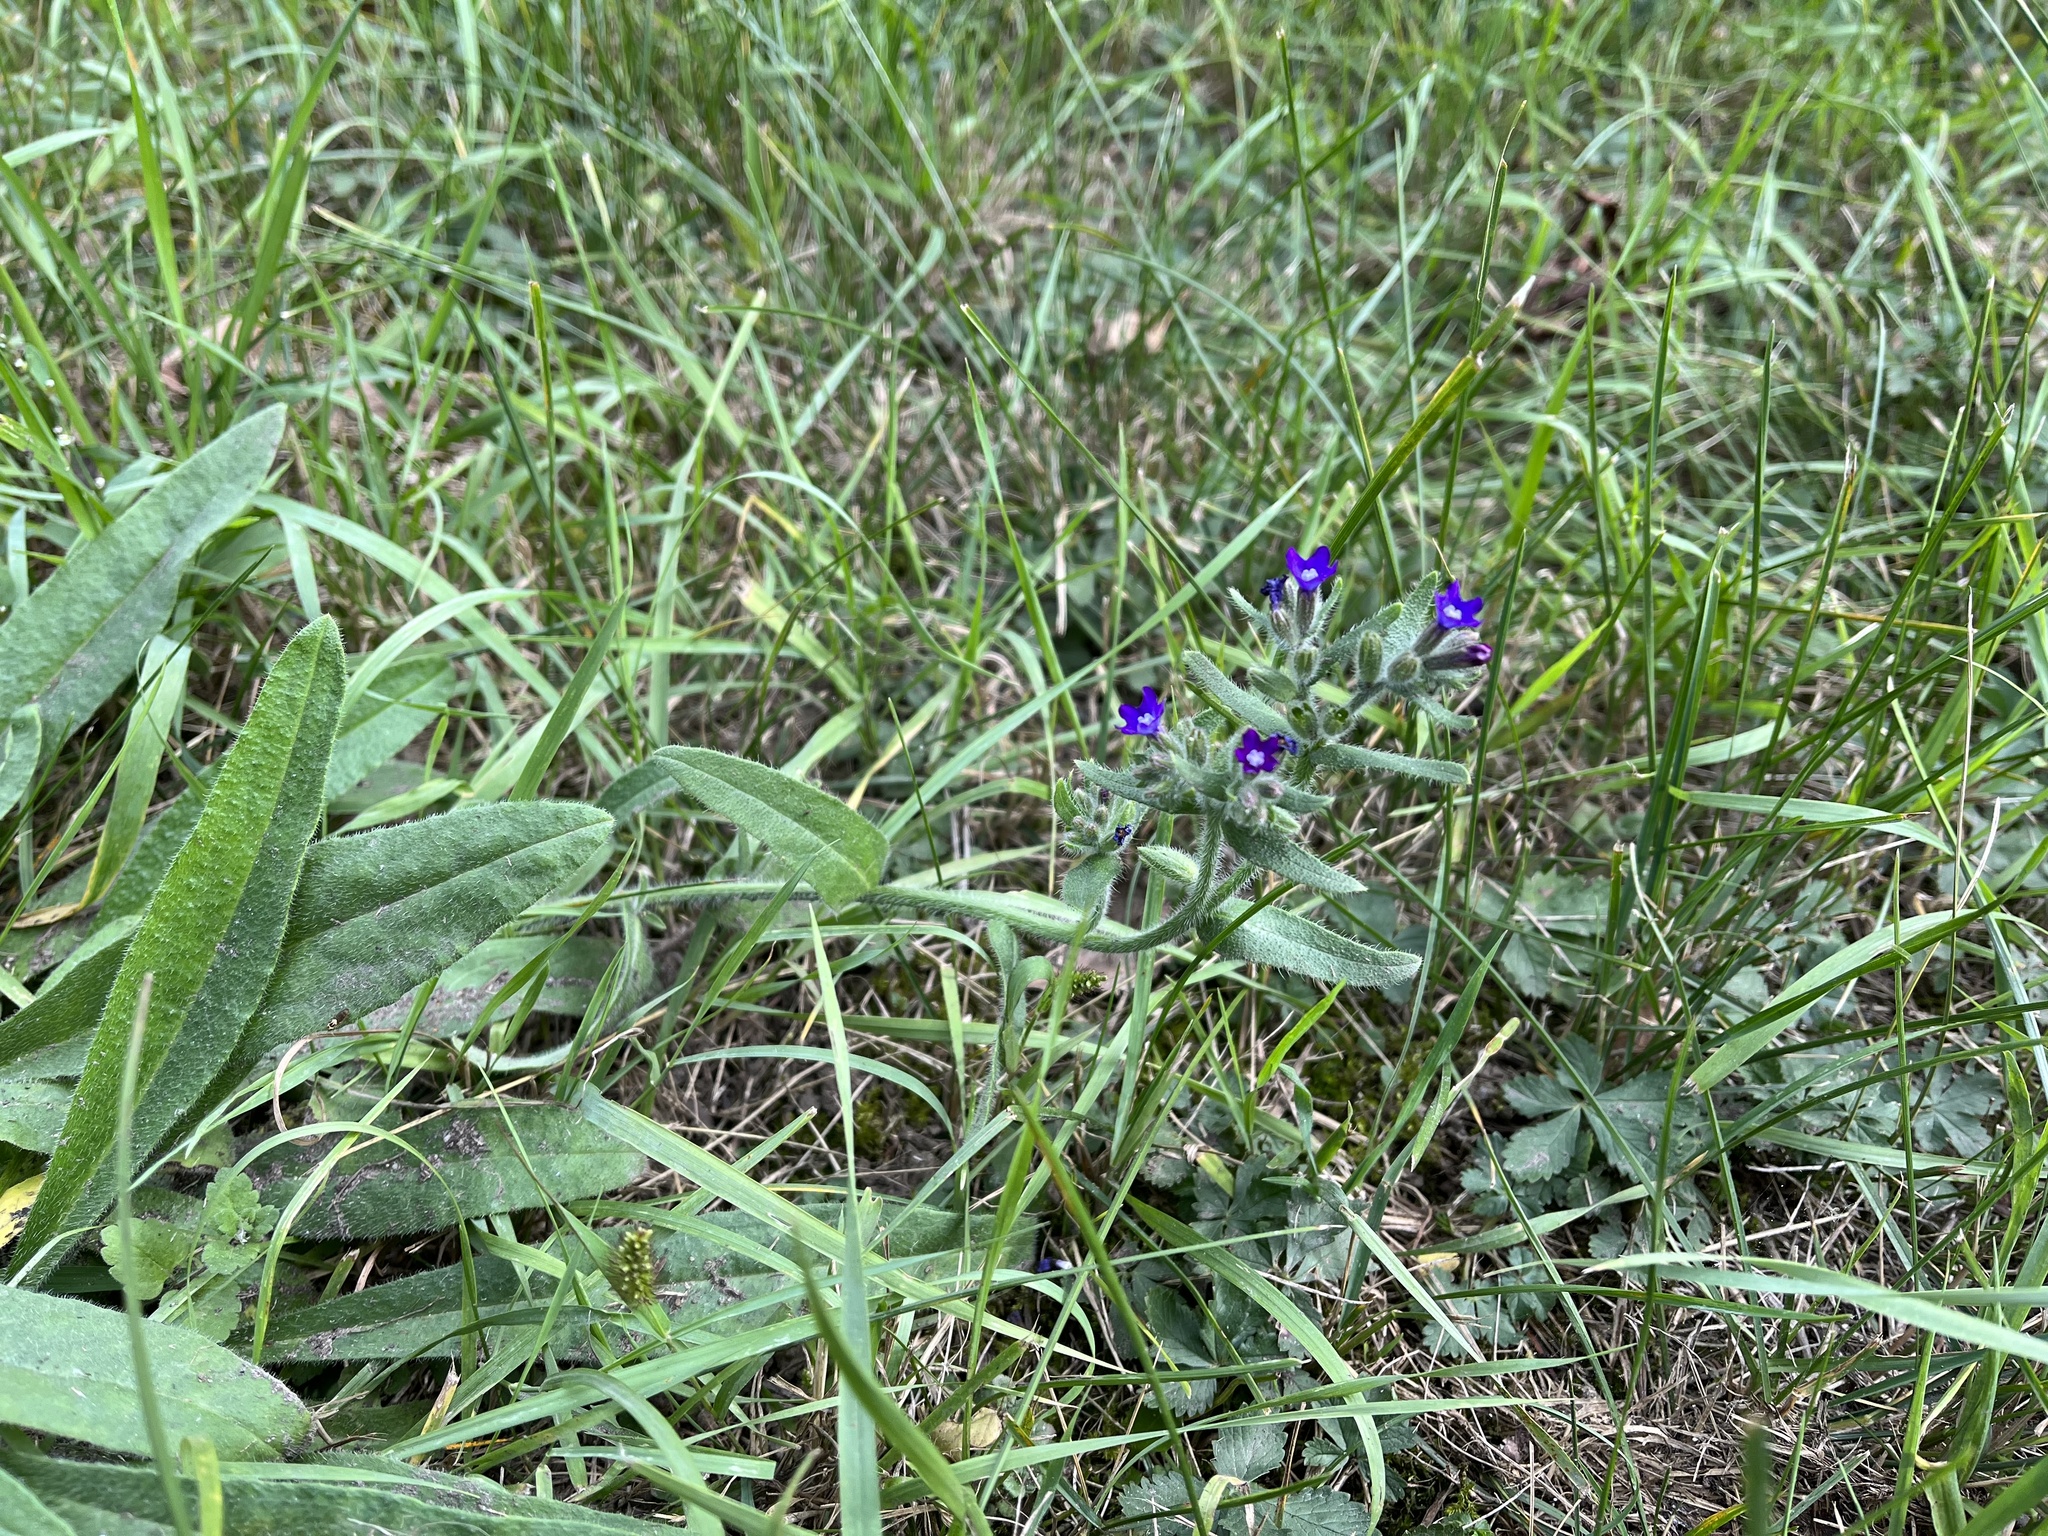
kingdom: Plantae
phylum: Tracheophyta
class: Magnoliopsida
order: Boraginales
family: Boraginaceae
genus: Anchusa
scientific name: Anchusa officinalis
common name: Alkanet
